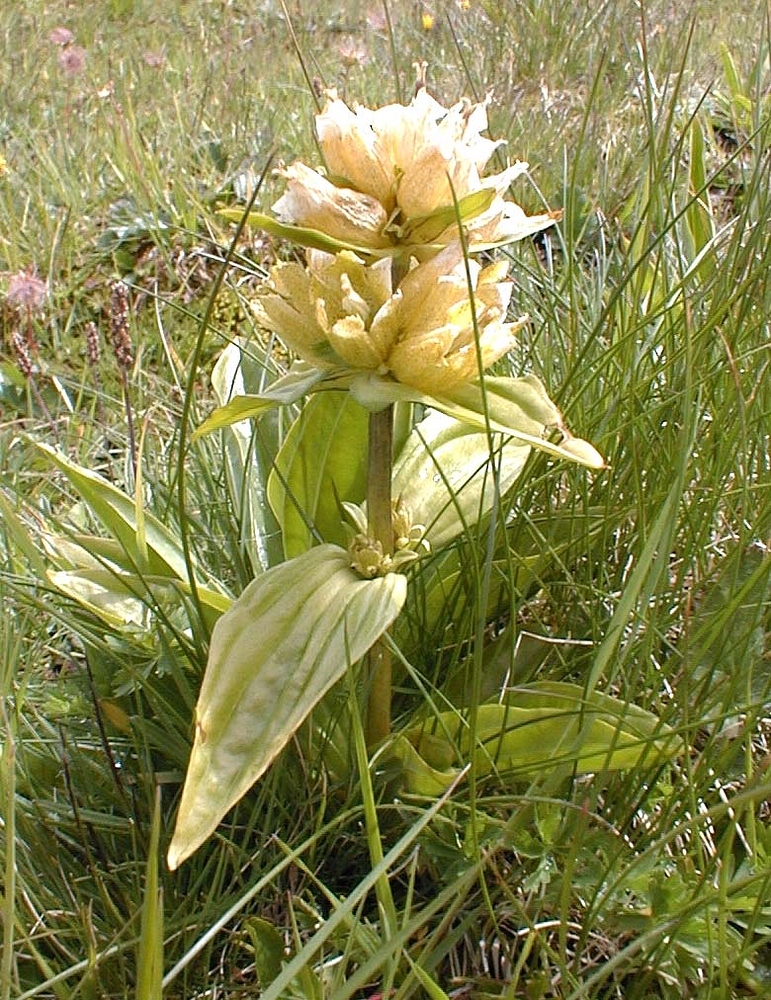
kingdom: Plantae
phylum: Tracheophyta
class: Magnoliopsida
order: Gentianales
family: Gentianaceae
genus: Gentiana
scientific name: Gentiana punctata
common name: Spotted gentian
